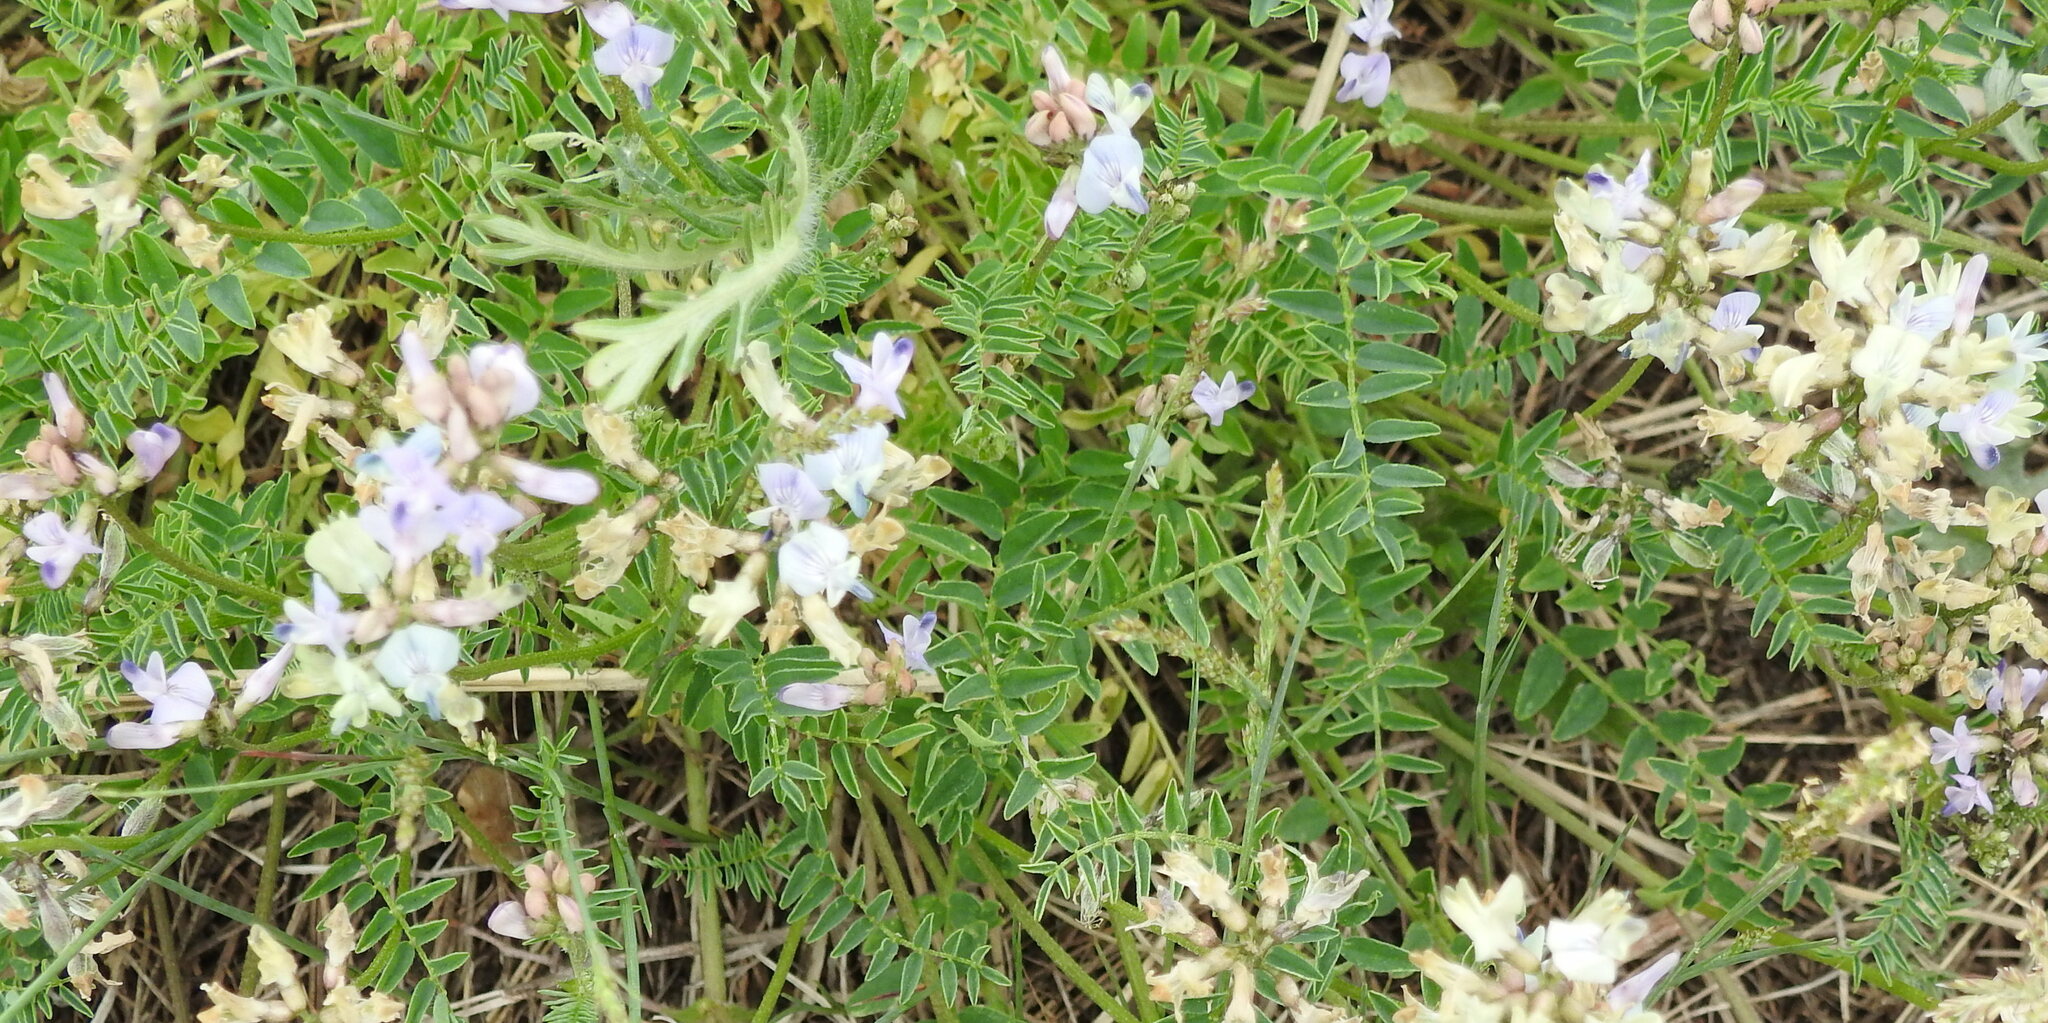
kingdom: Plantae
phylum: Tracheophyta
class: Magnoliopsida
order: Fabales
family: Fabaceae
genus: Astragalus
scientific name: Astragalus alpinus
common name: Alpine milk-vetch
